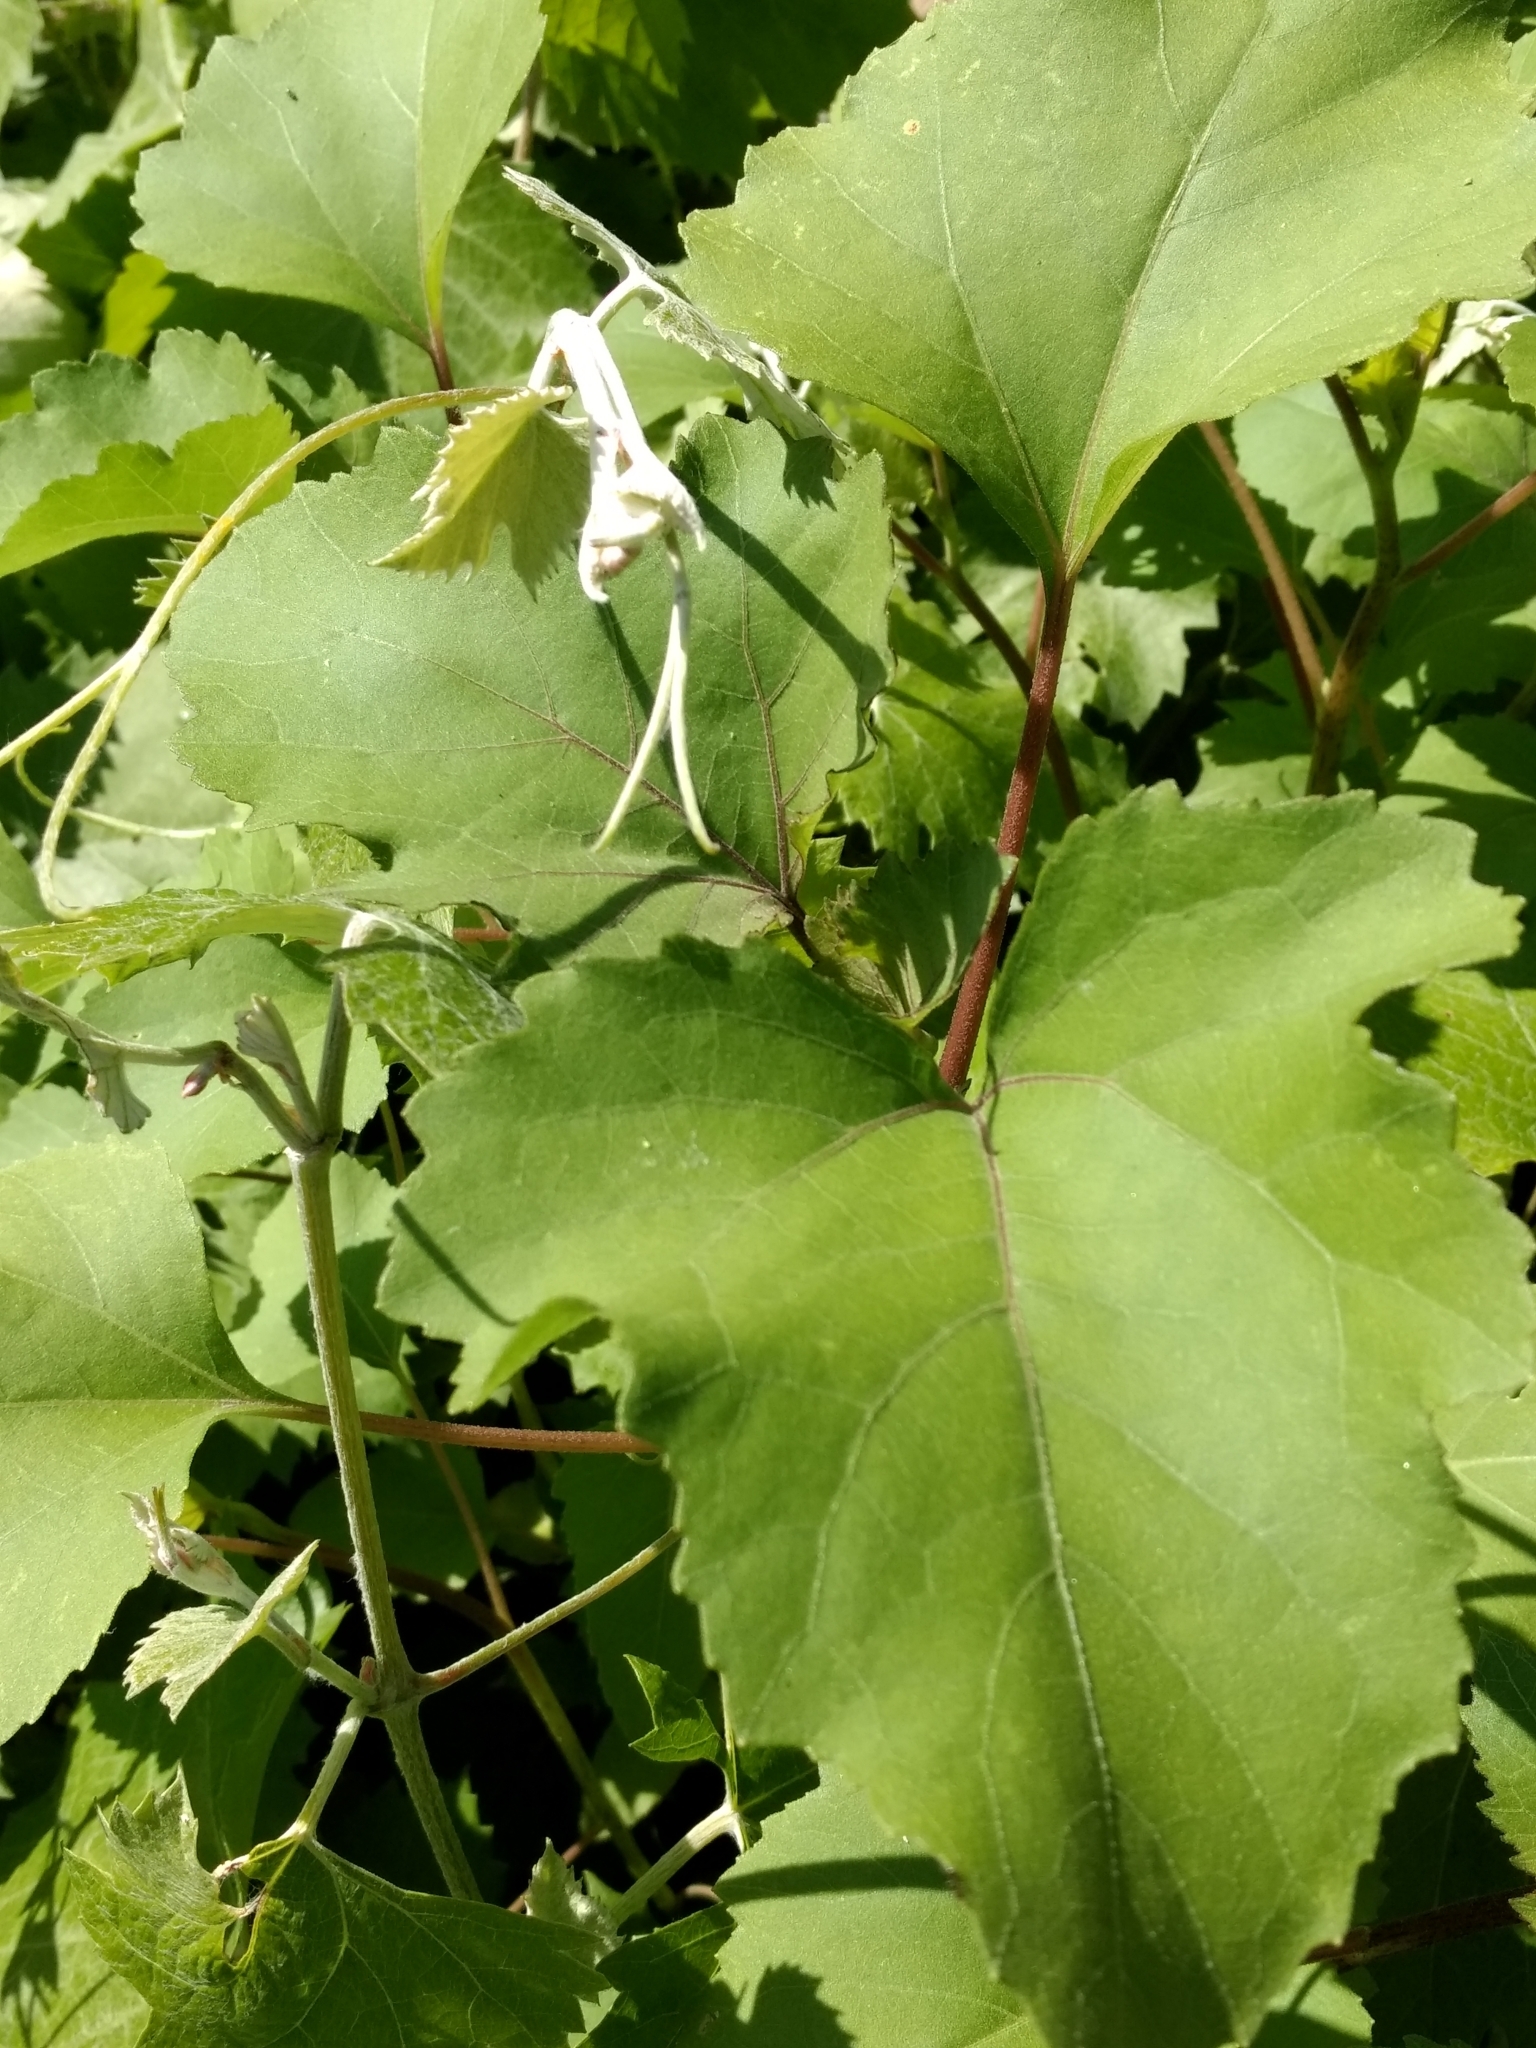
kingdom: Plantae
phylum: Tracheophyta
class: Magnoliopsida
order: Vitales
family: Vitaceae
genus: Vitis
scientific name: Vitis girdiana
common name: Desert wild grape
